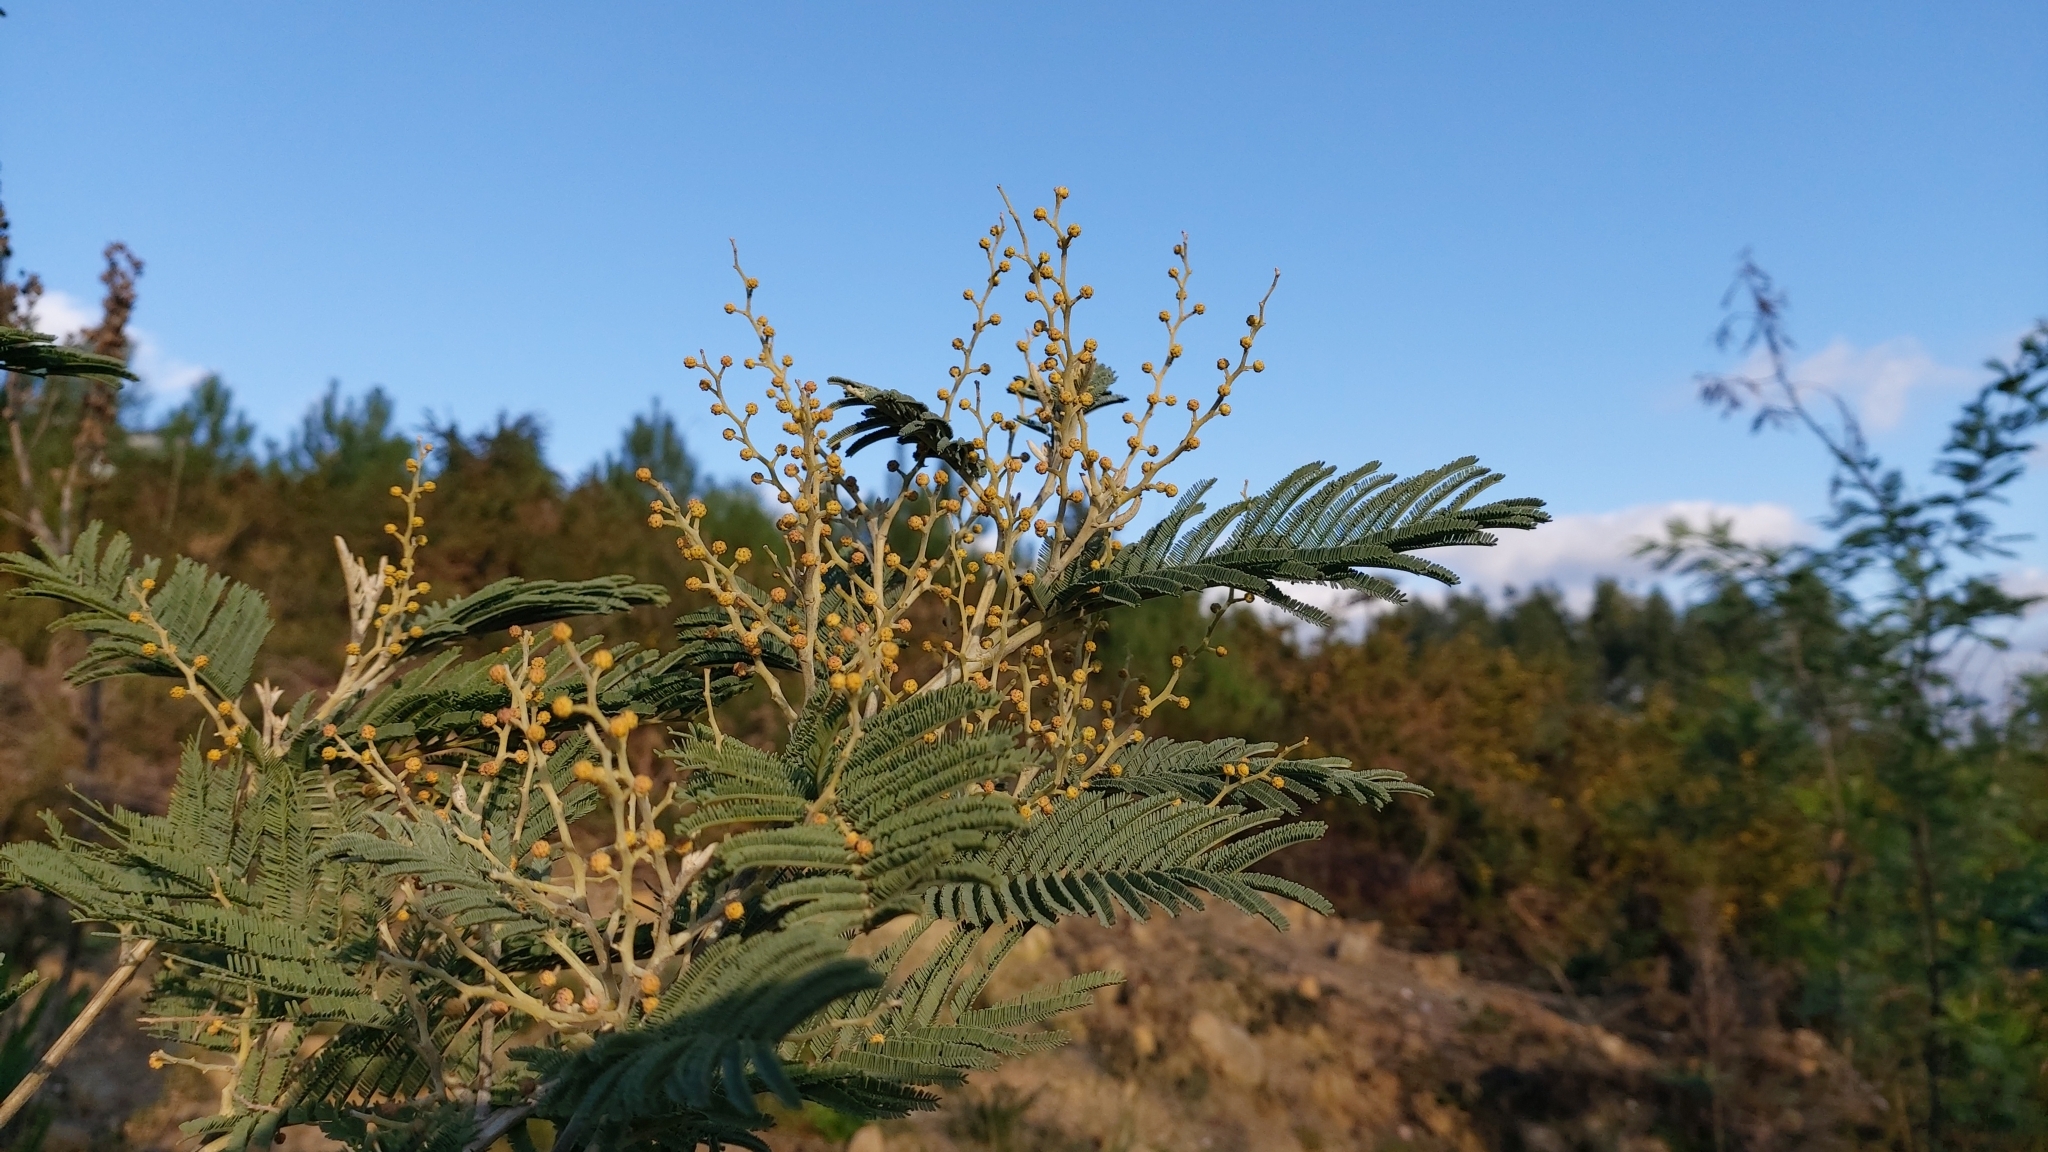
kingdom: Plantae
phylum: Tracheophyta
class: Magnoliopsida
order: Fabales
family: Fabaceae
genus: Acacia
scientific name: Acacia dealbata
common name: Silver wattle
